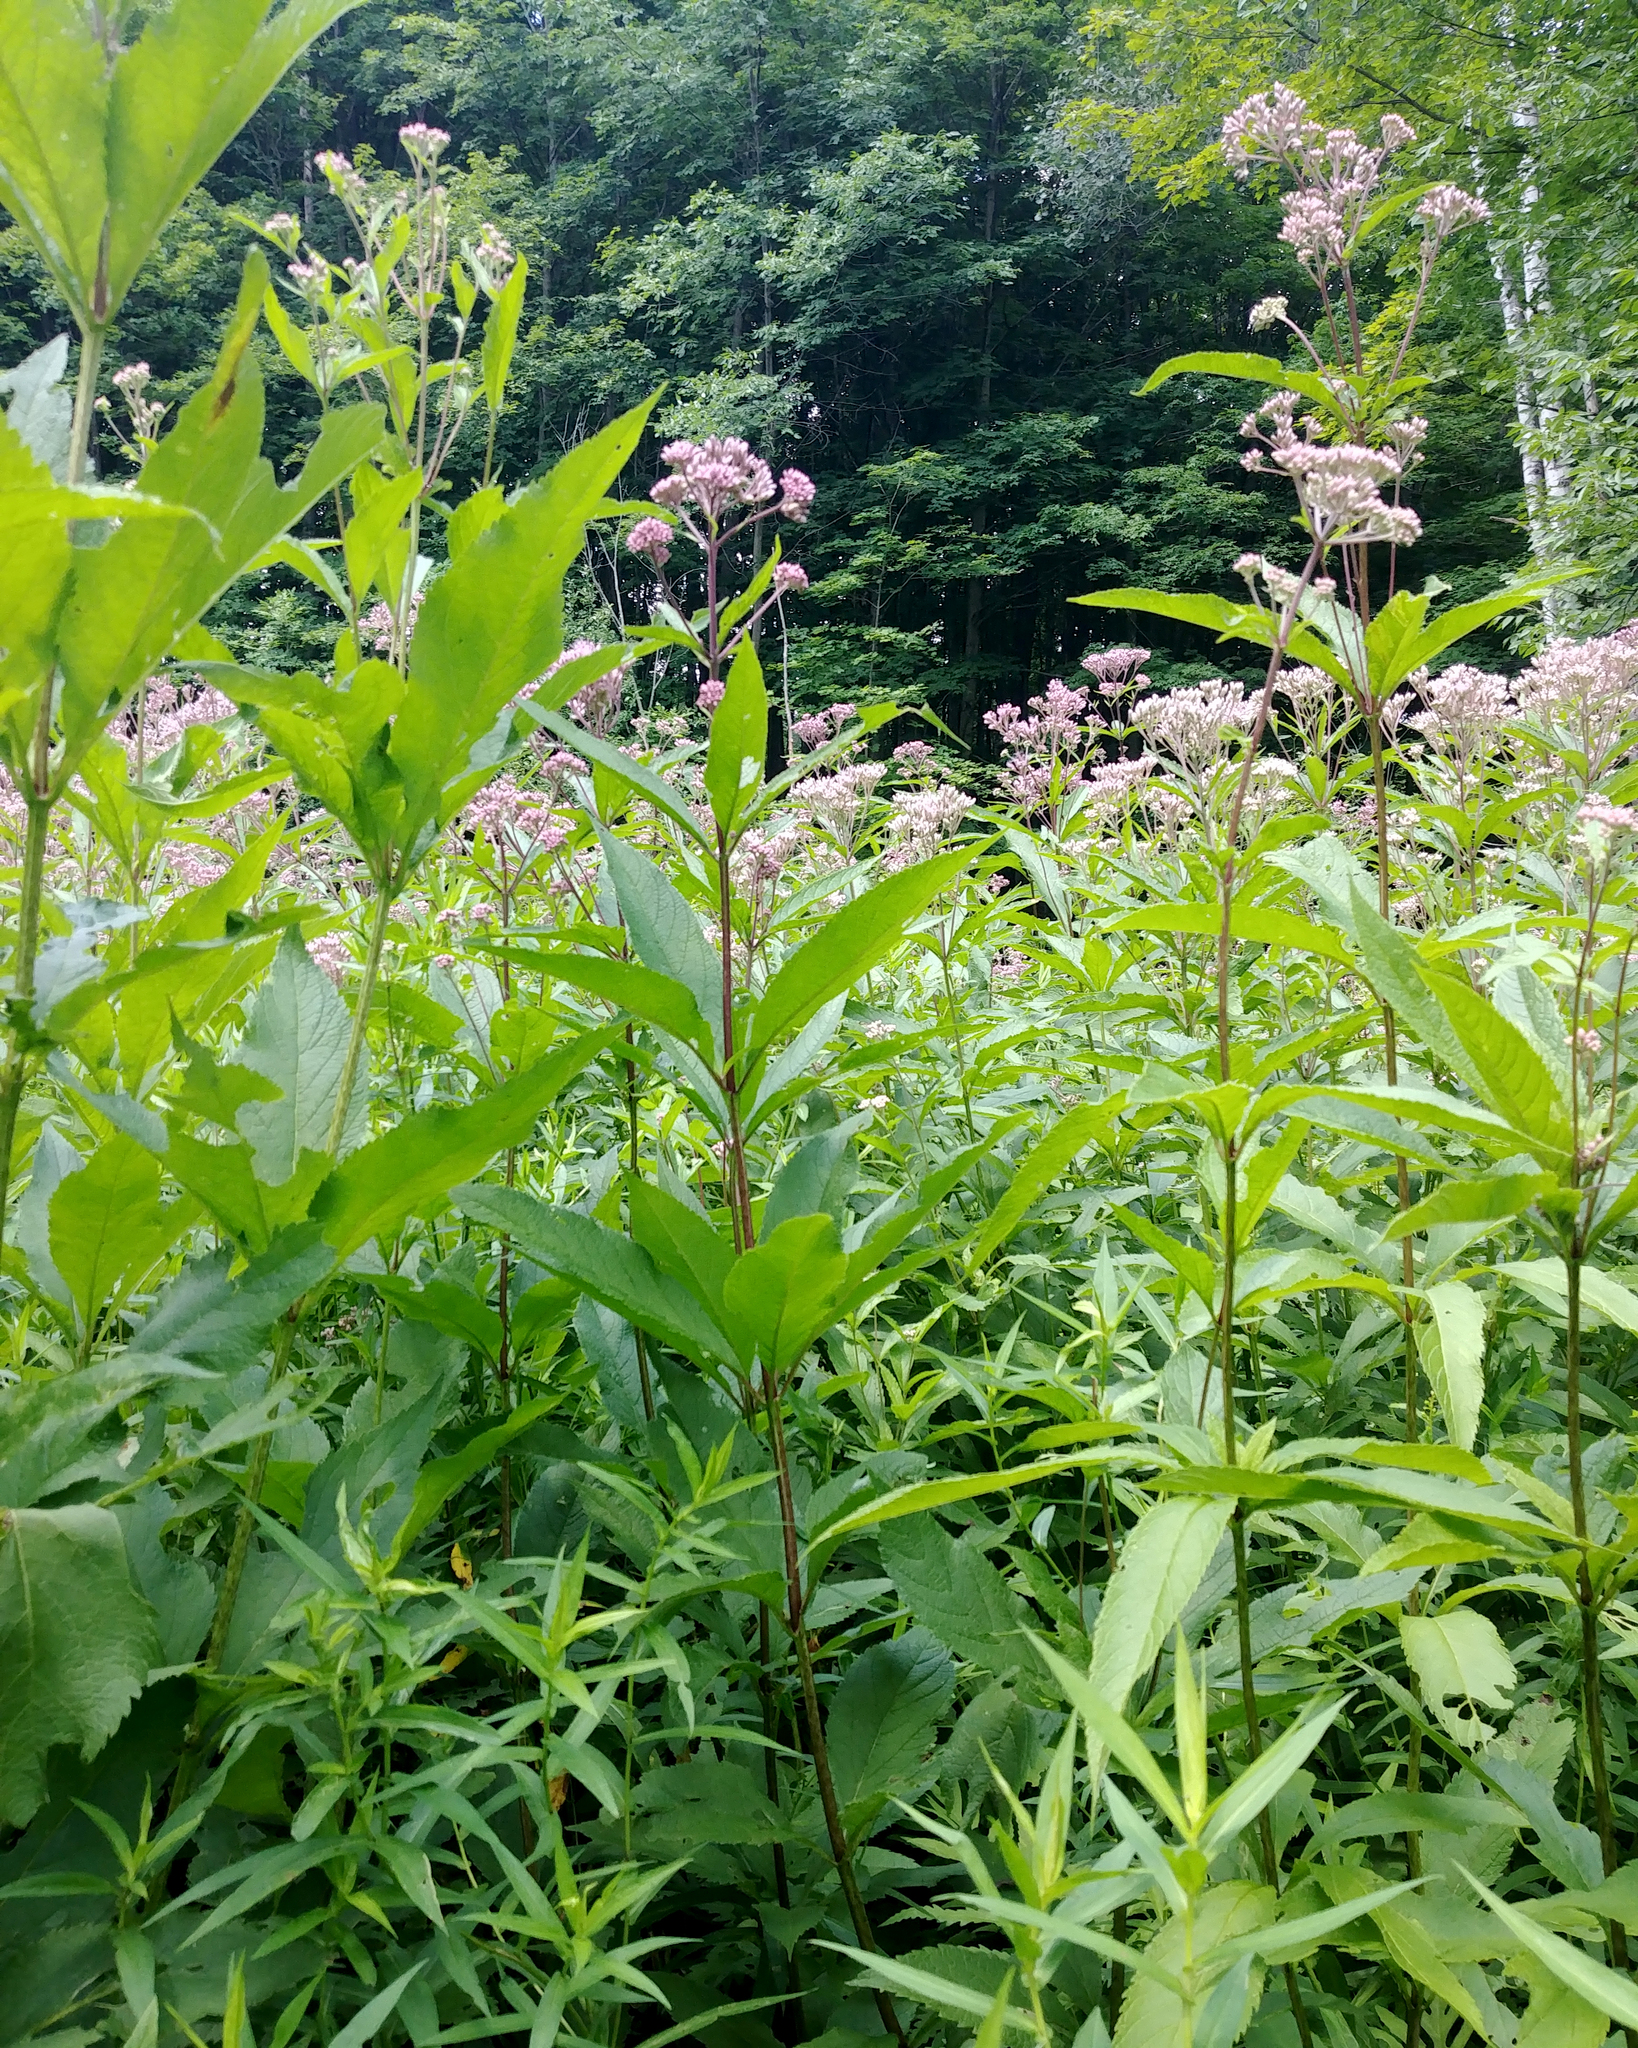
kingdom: Plantae
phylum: Tracheophyta
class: Magnoliopsida
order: Asterales
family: Asteraceae
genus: Eutrochium
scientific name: Eutrochium maculatum
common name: Spotted joe pye weed
